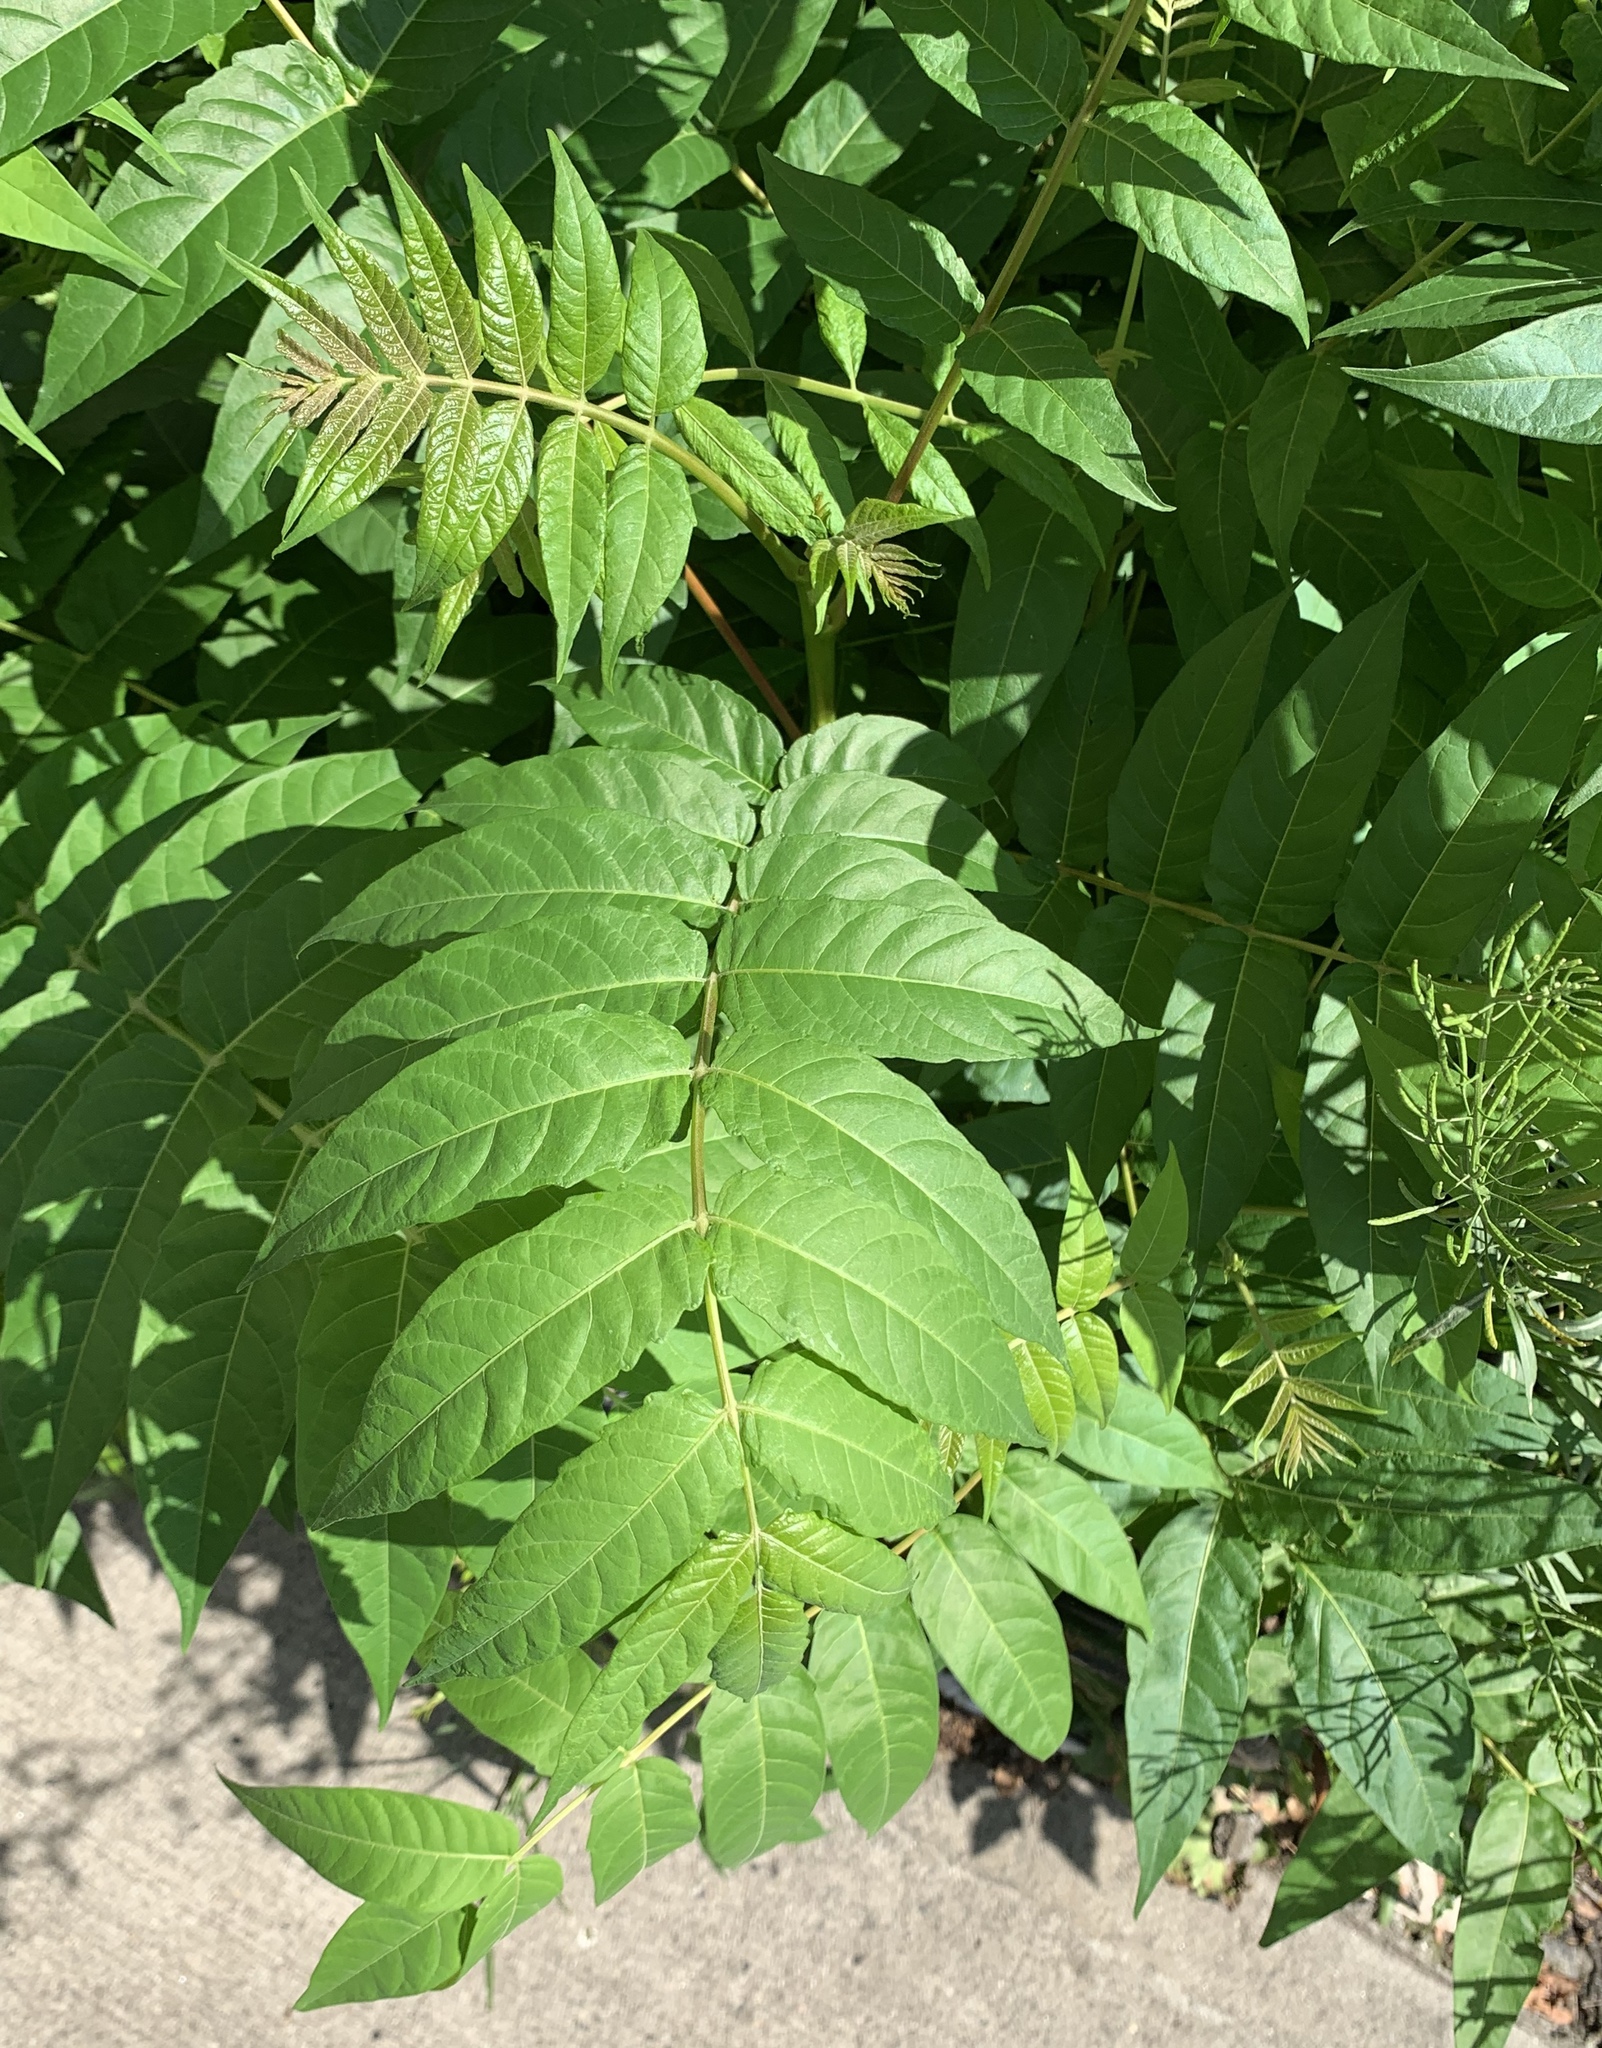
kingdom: Plantae
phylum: Tracheophyta
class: Magnoliopsida
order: Sapindales
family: Simaroubaceae
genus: Ailanthus
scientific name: Ailanthus altissima
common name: Tree-of-heaven
